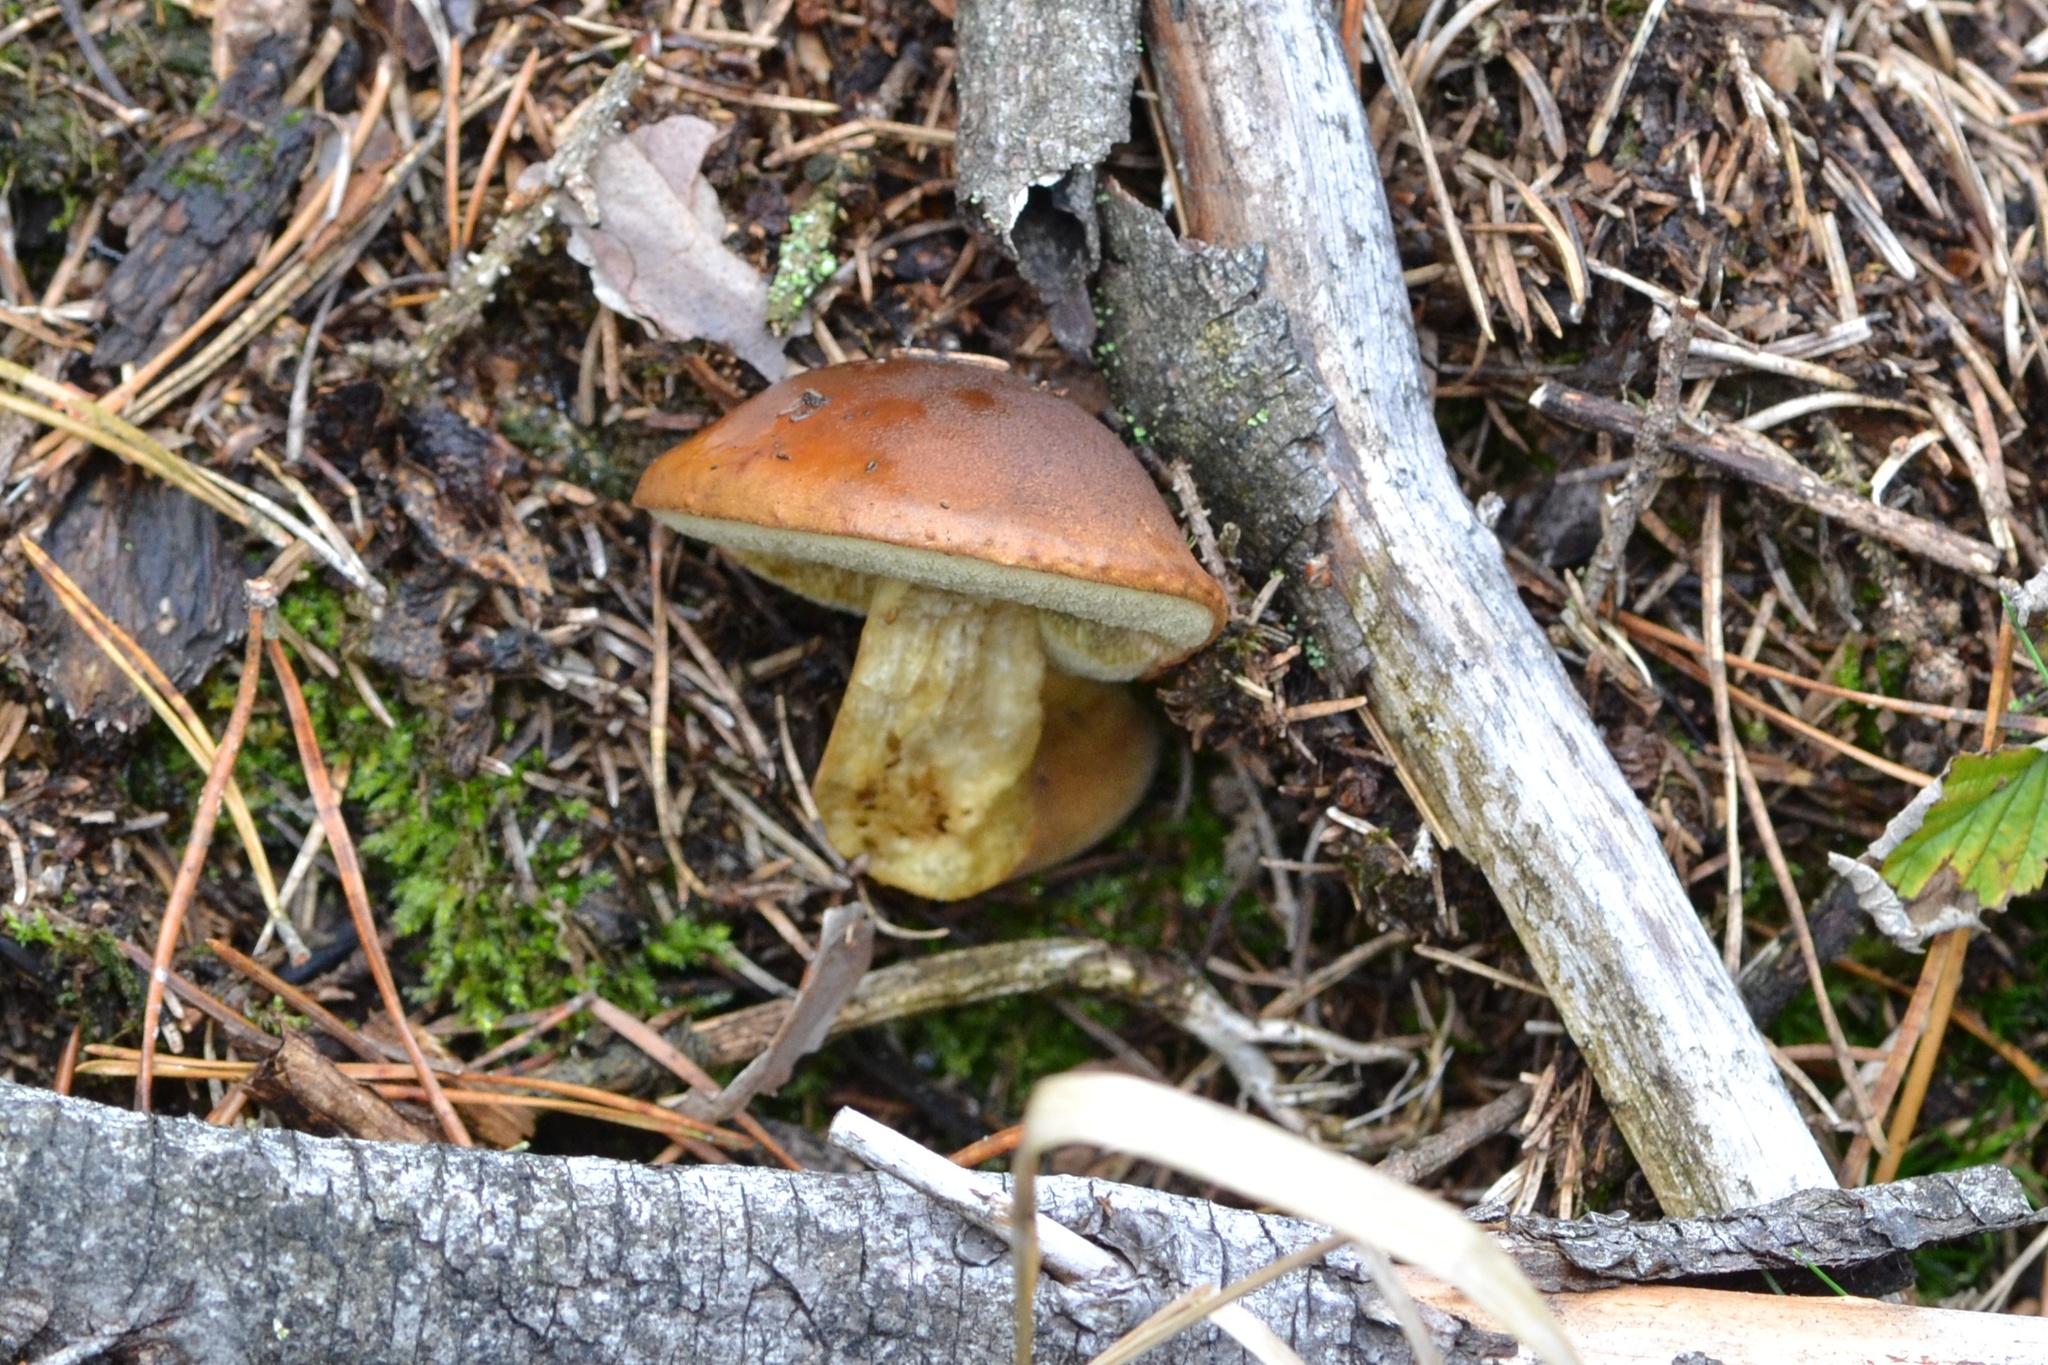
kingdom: Fungi
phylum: Basidiomycota
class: Agaricomycetes
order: Boletales
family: Boletaceae
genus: Imleria
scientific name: Imleria badia
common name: Bay bolete
